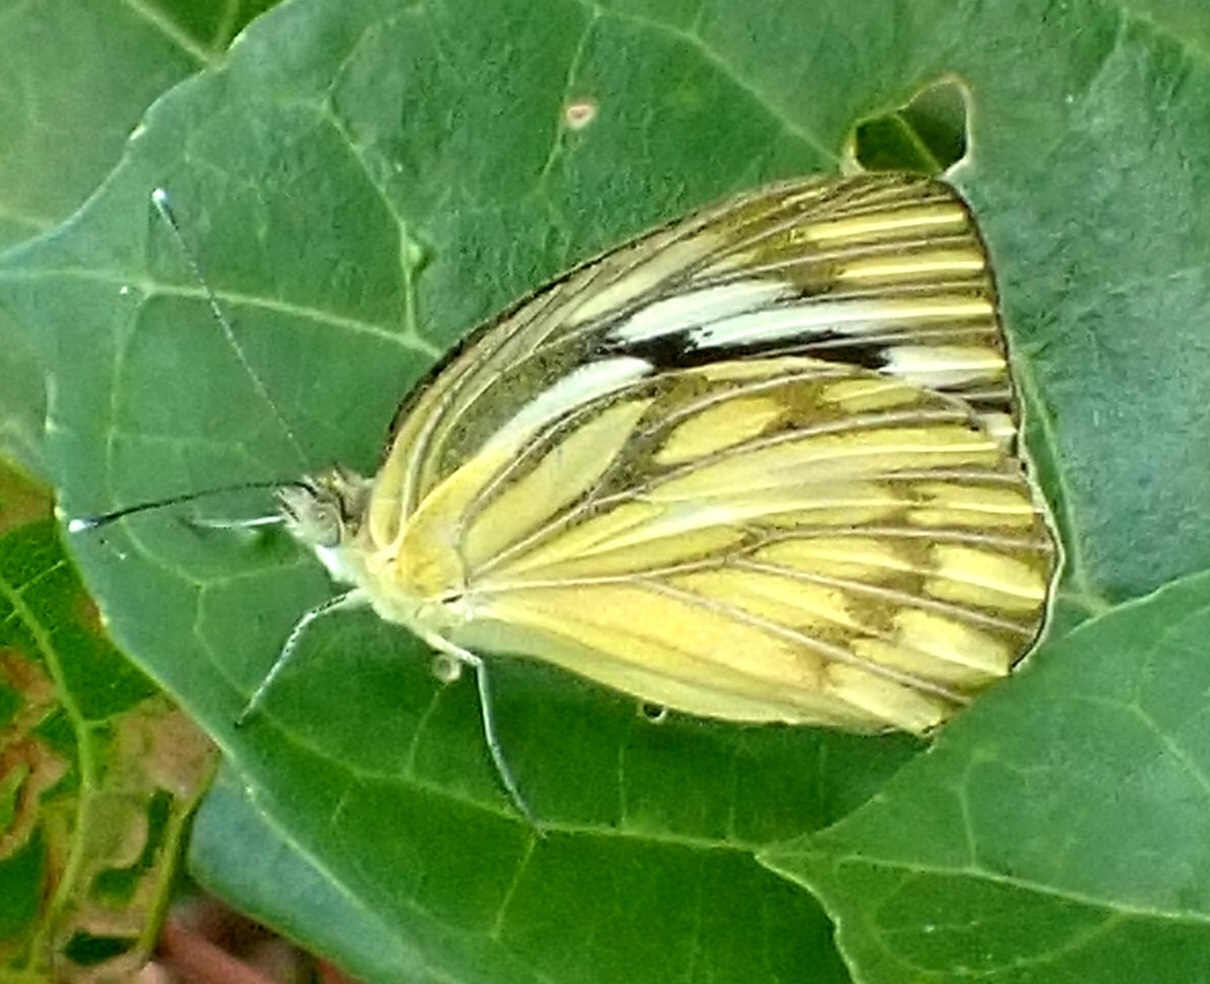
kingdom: Animalia
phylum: Arthropoda
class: Insecta
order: Lepidoptera
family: Pieridae
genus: Cepora
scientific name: Cepora nerissa
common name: Common gull
